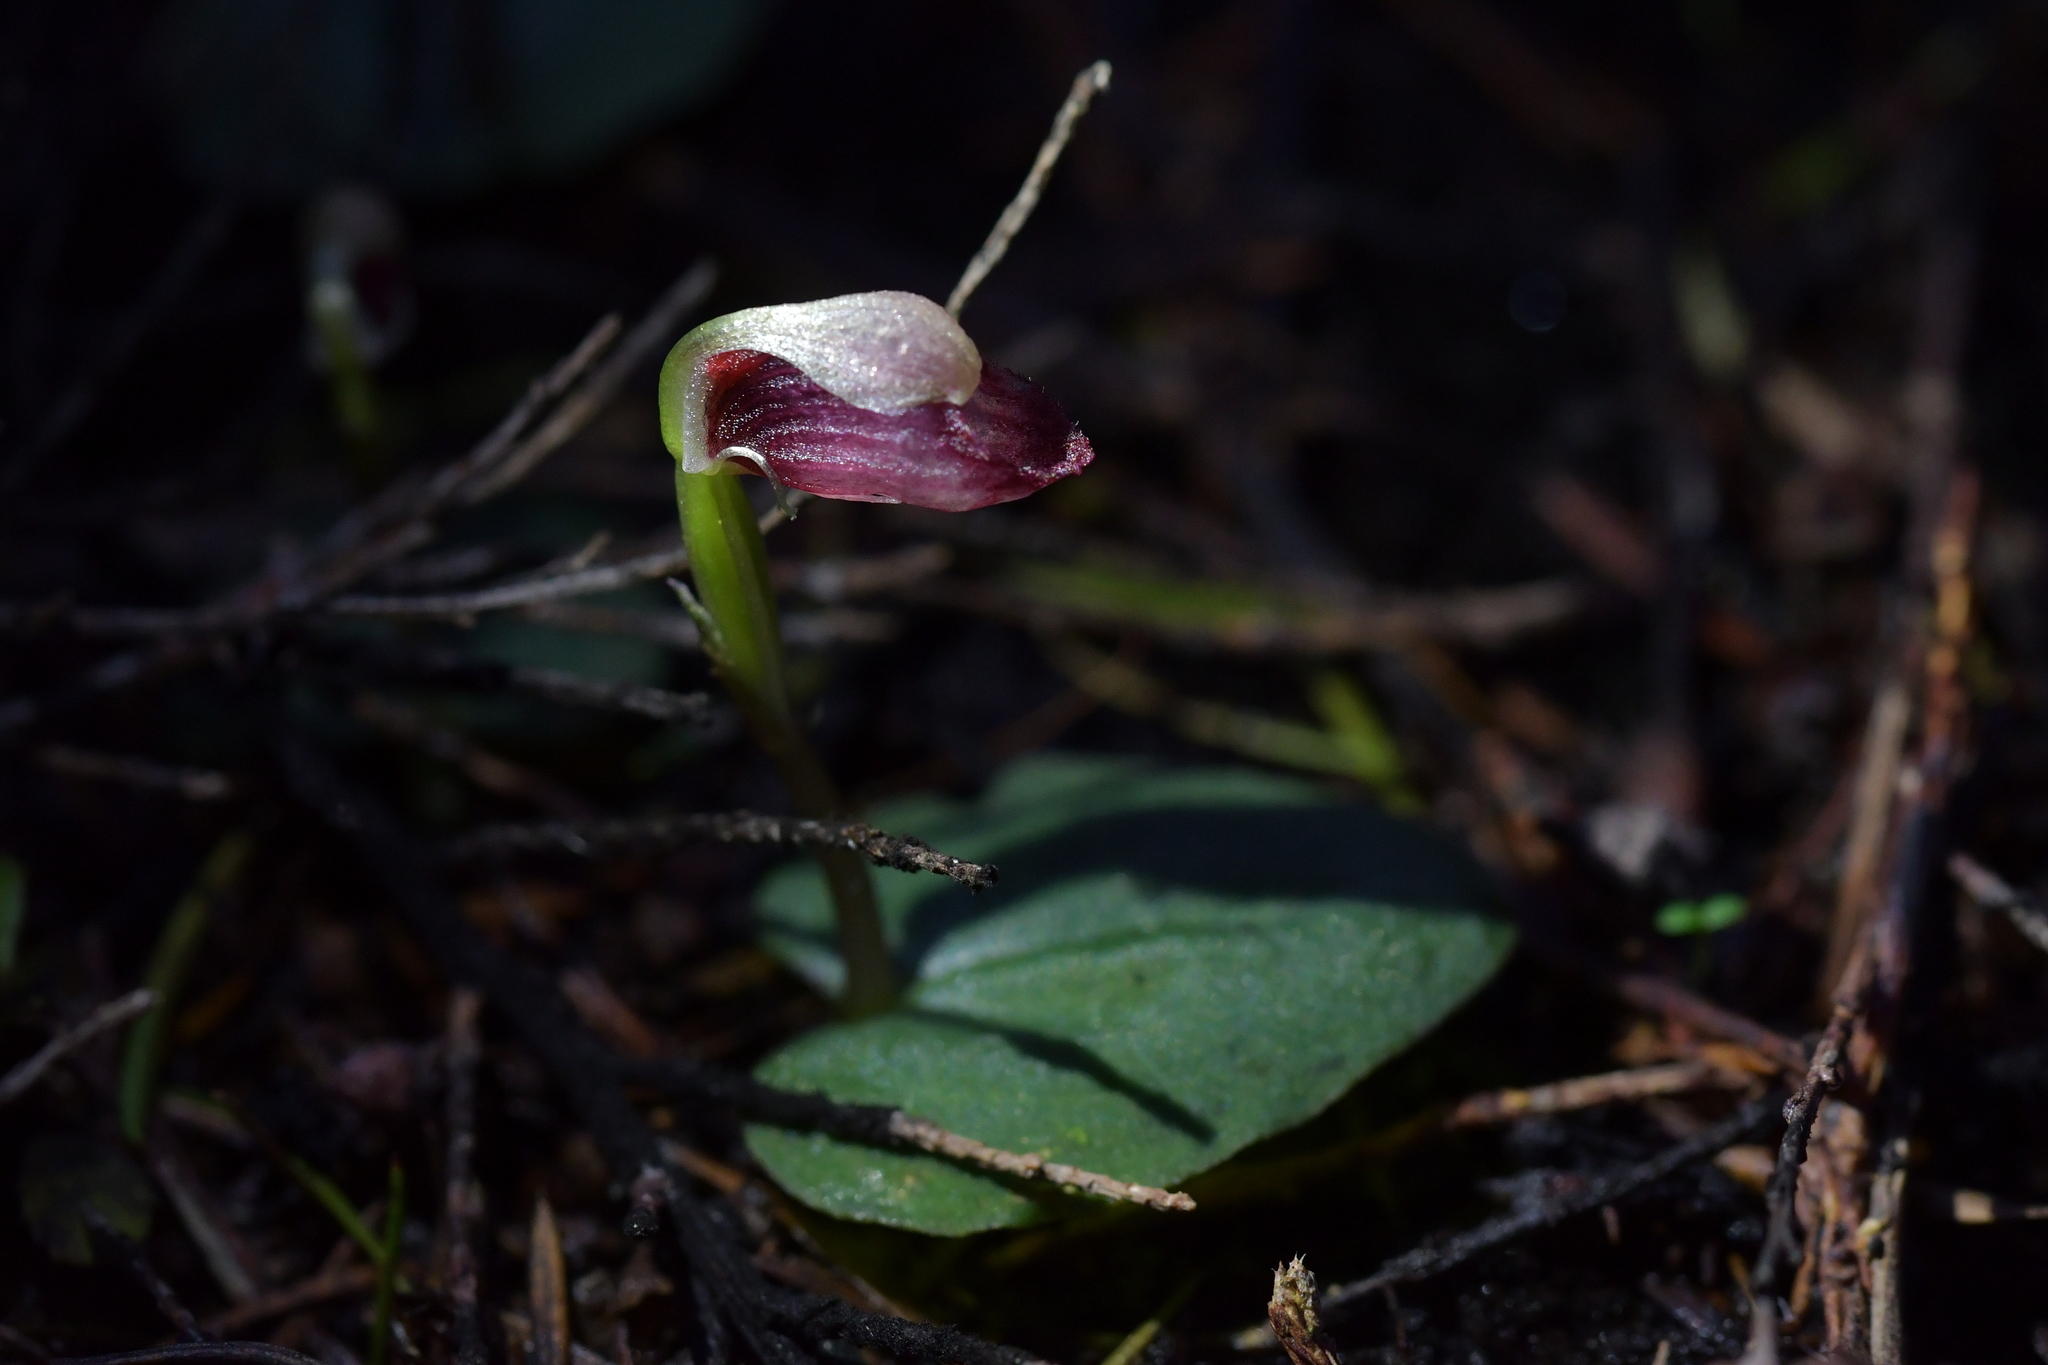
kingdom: Plantae
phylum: Tracheophyta
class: Liliopsida
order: Asparagales
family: Orchidaceae
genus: Corybas
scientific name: Corybas rotundifolius
